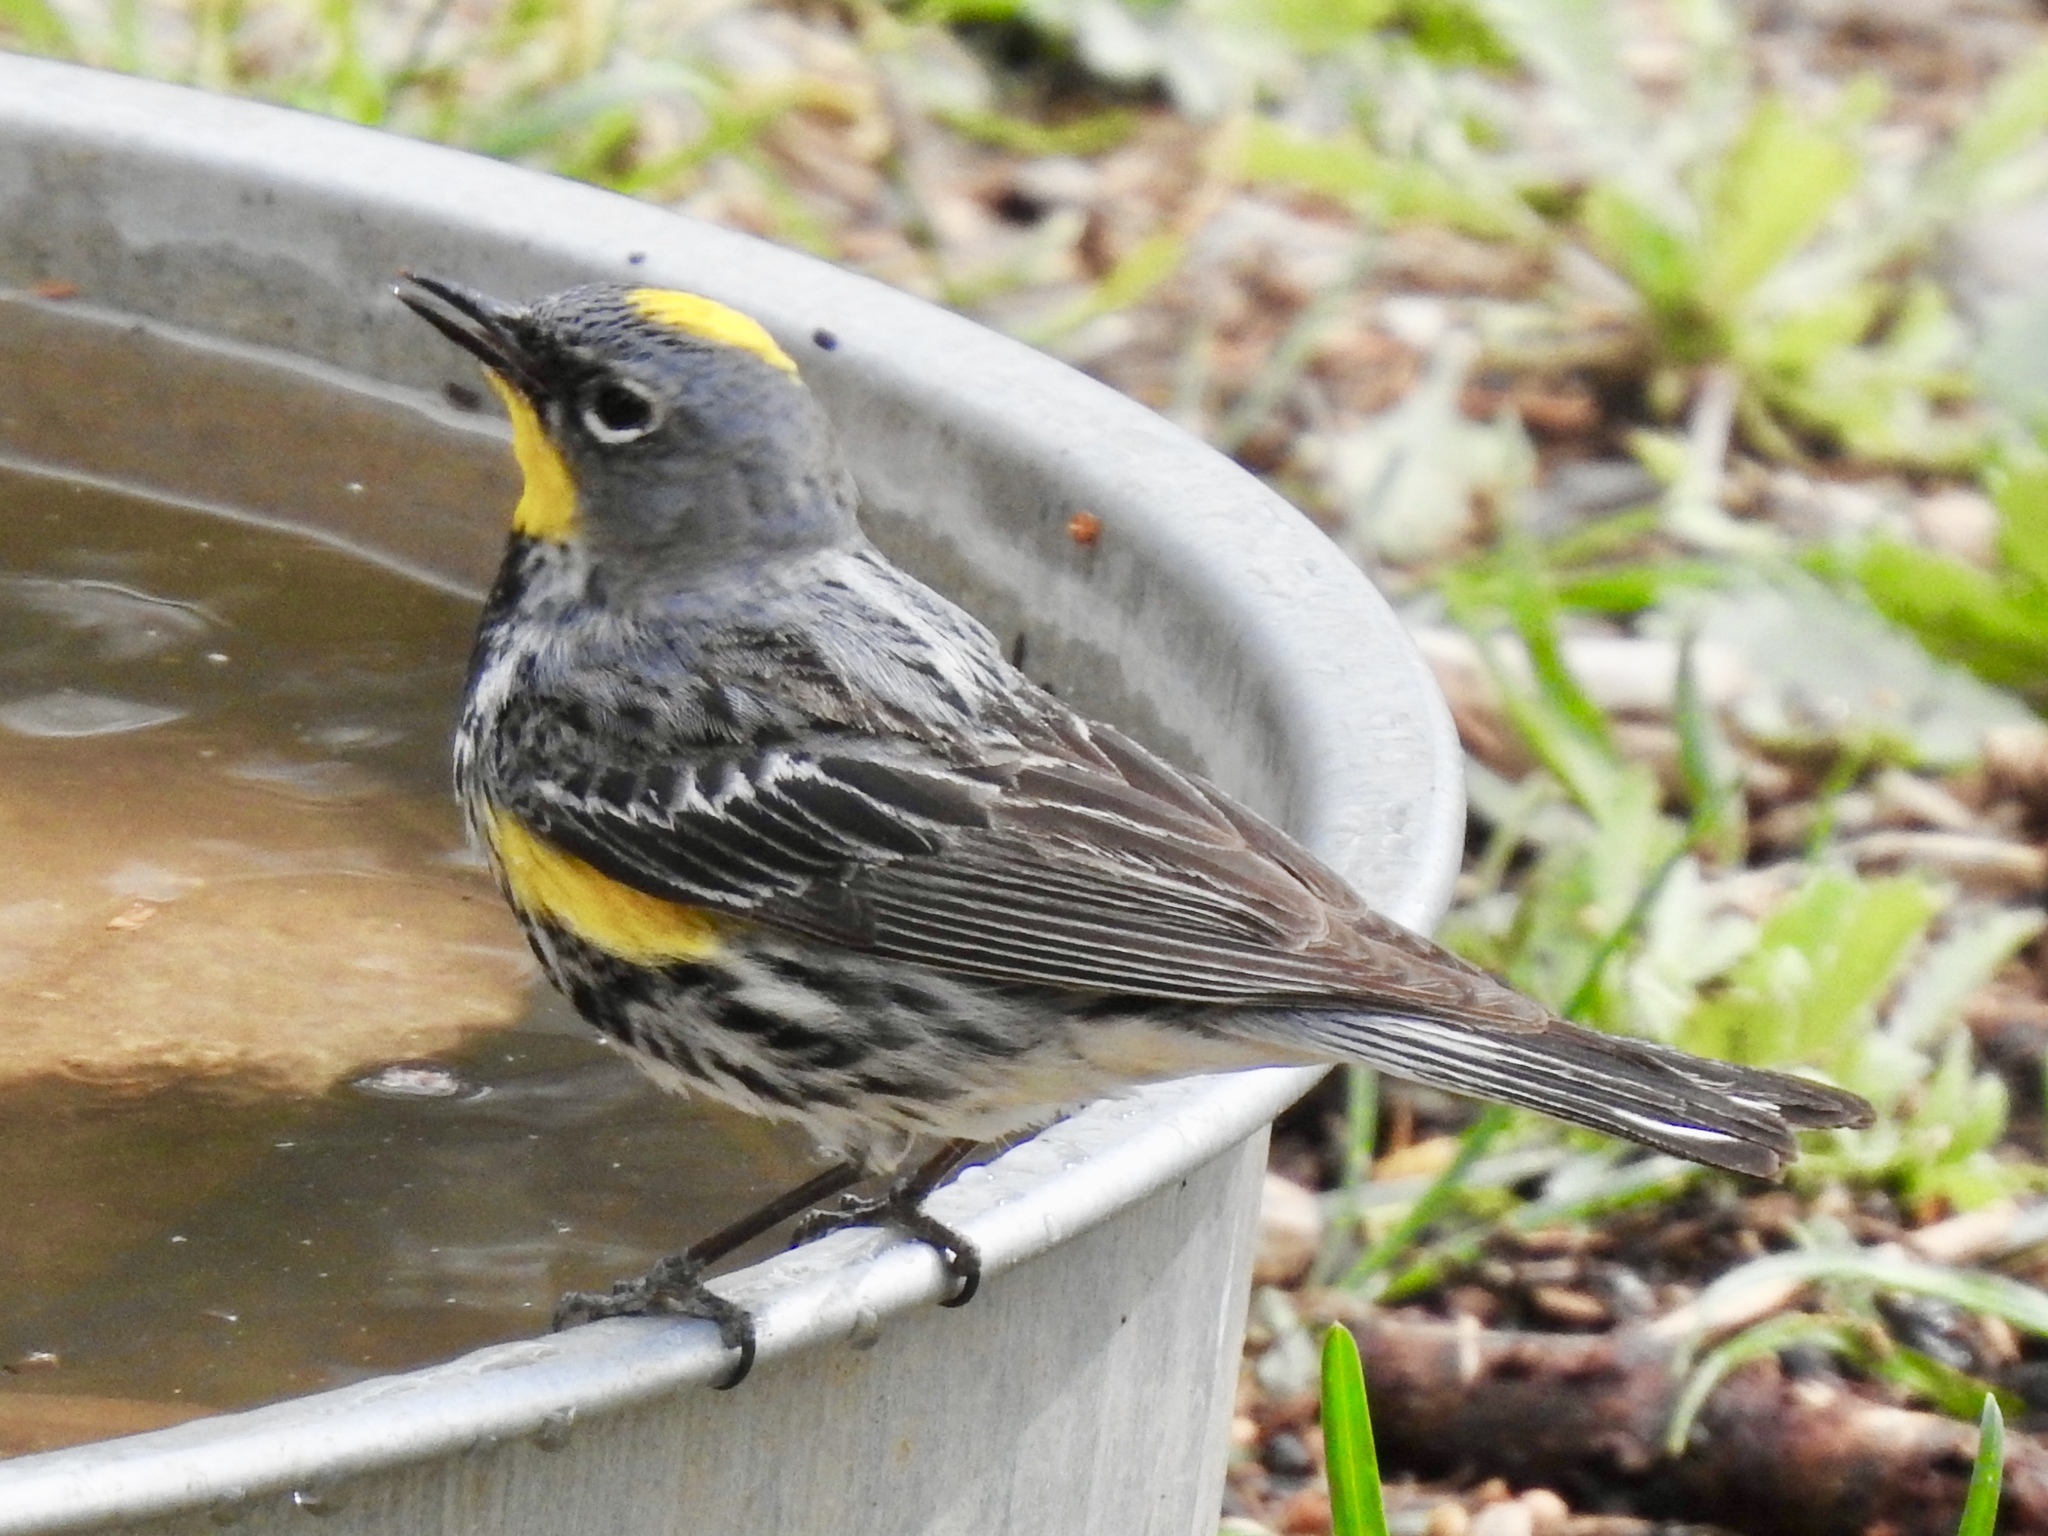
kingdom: Animalia
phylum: Chordata
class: Aves
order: Passeriformes
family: Parulidae
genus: Setophaga
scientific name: Setophaga auduboni
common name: Audubon's warbler
